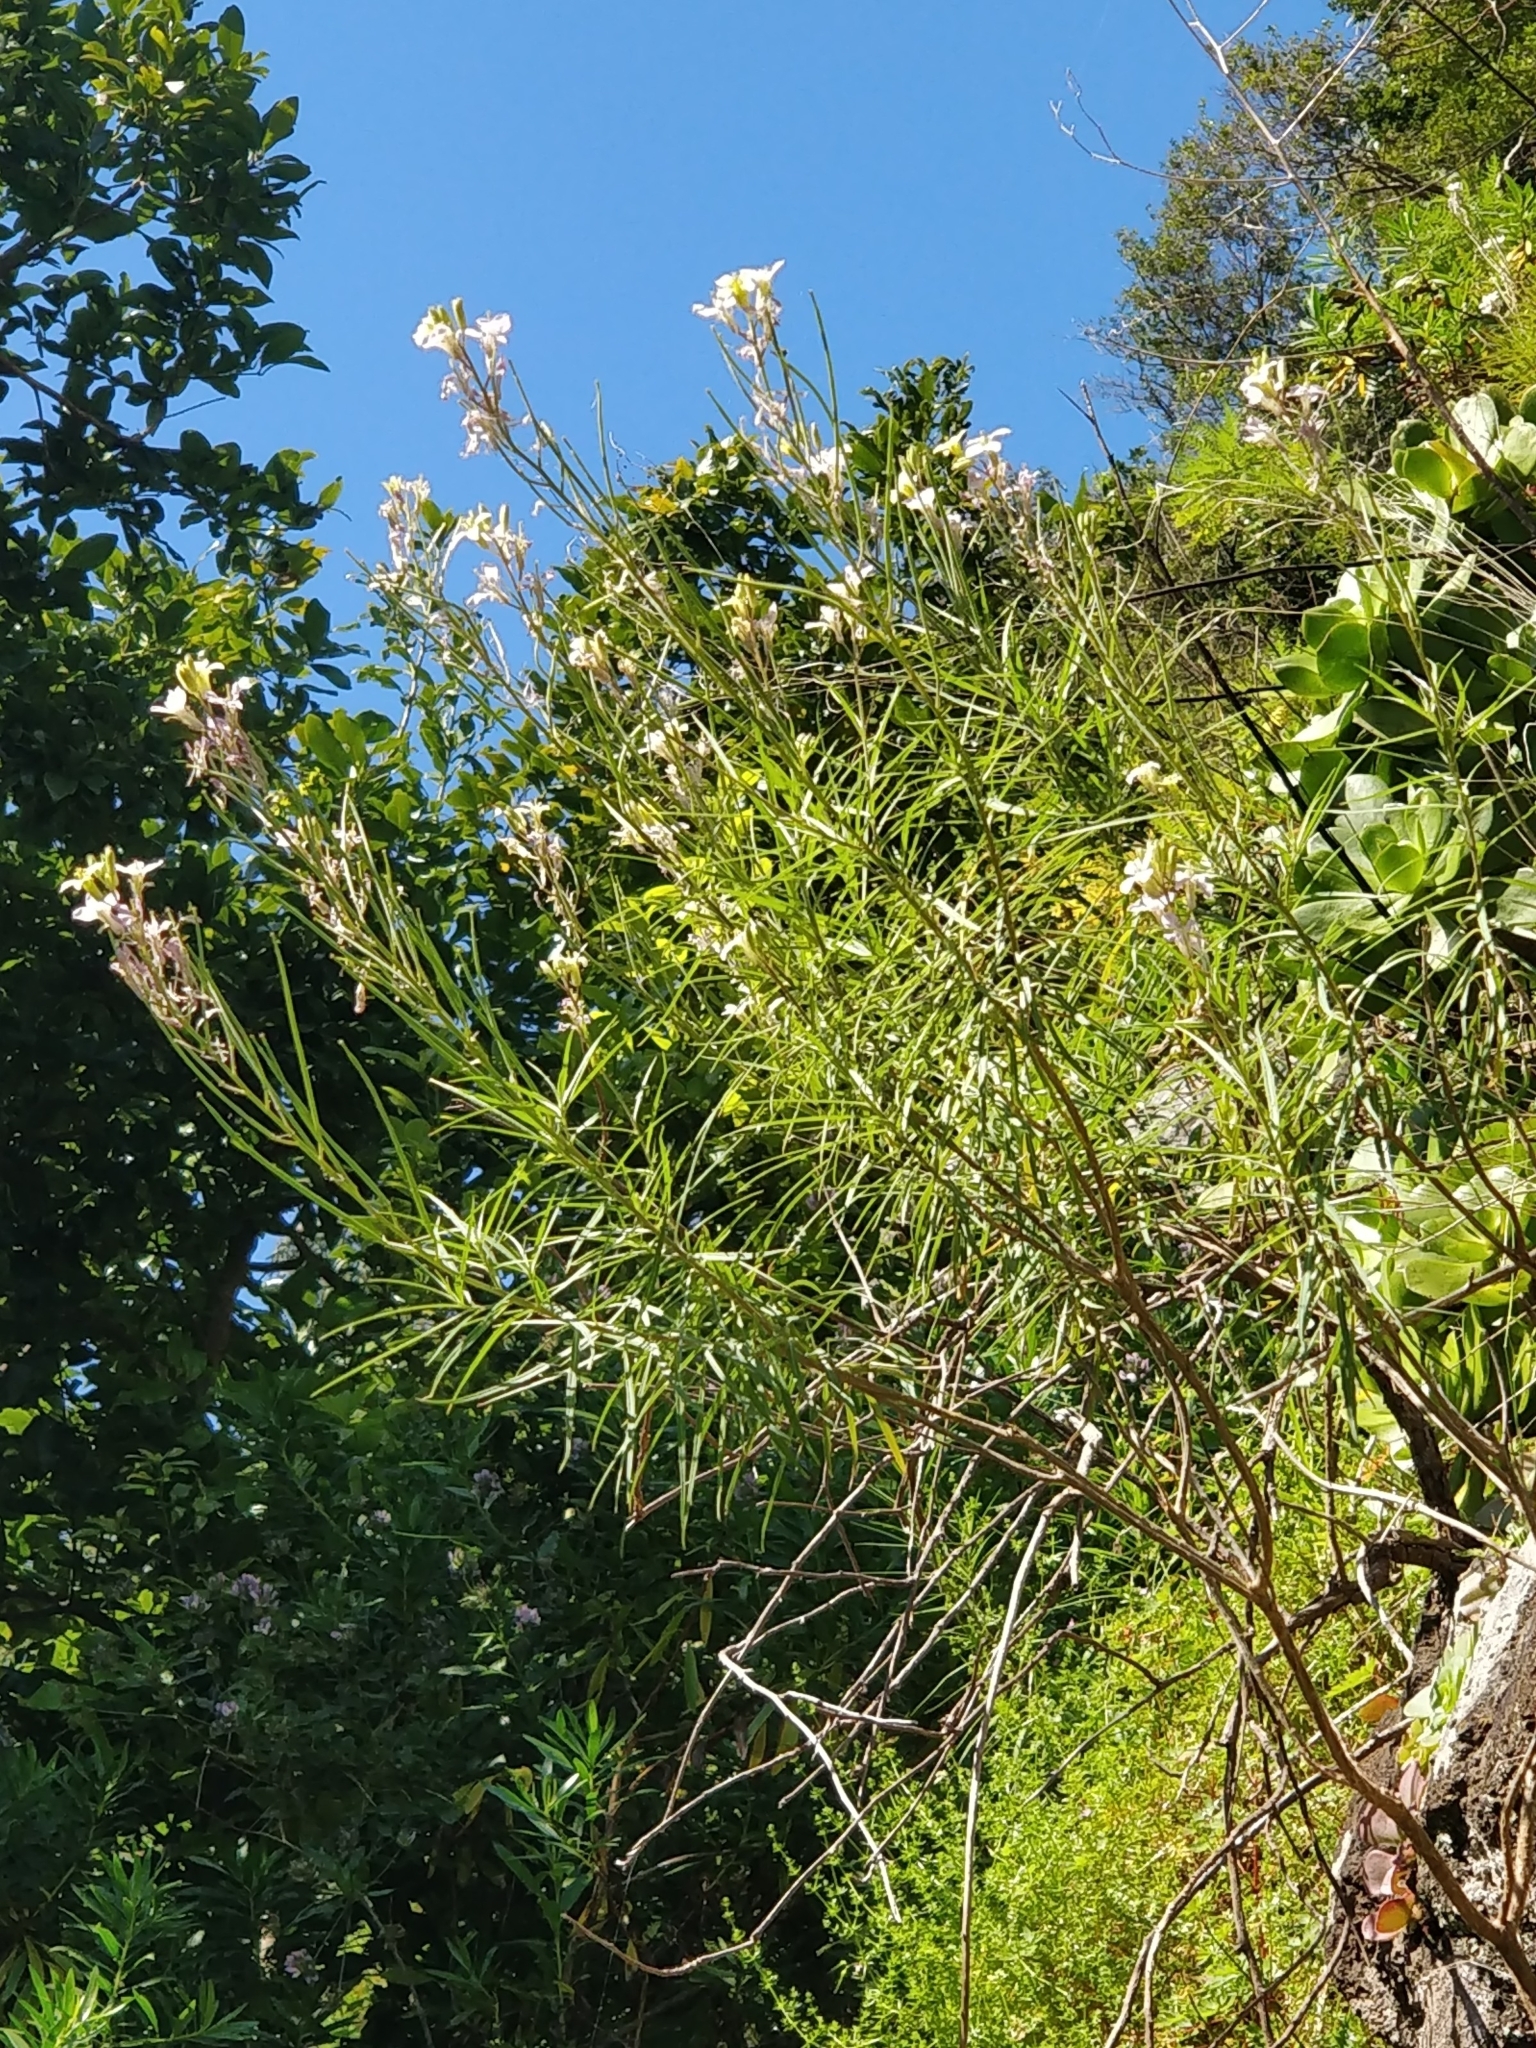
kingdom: Plantae
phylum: Tracheophyta
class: Magnoliopsida
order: Brassicales
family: Brassicaceae
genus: Erysimum
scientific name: Erysimum bicolor
